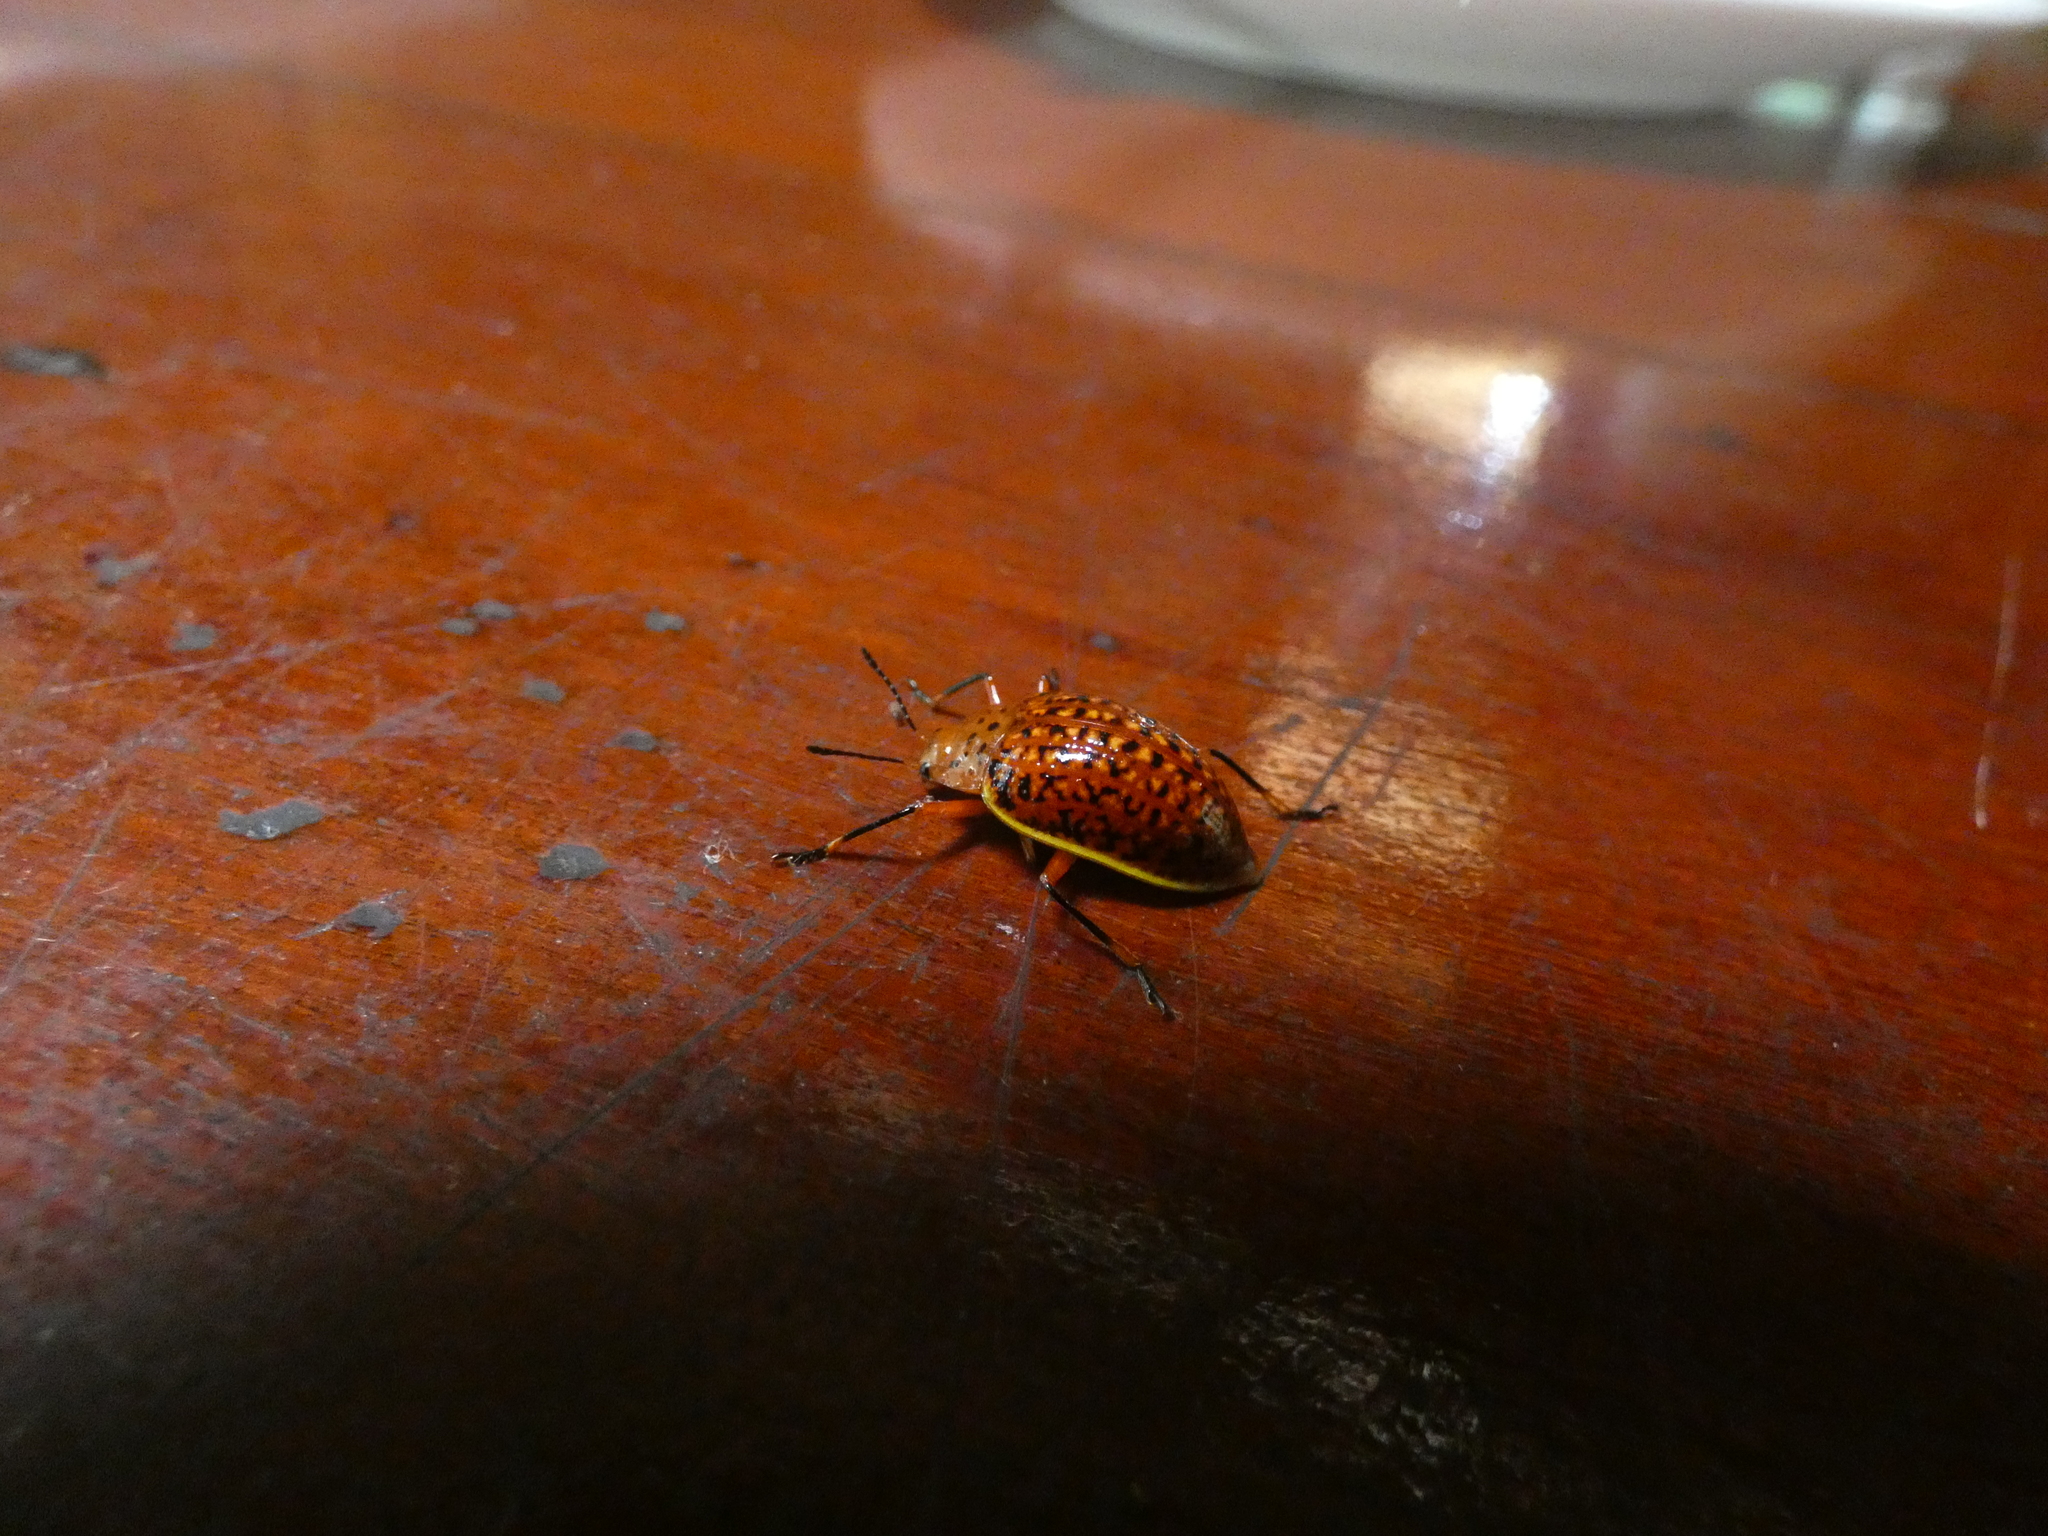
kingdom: Animalia
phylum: Arthropoda
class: Insecta
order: Coleoptera
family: Erotylidae
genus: Erotylina
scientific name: Erotylina
